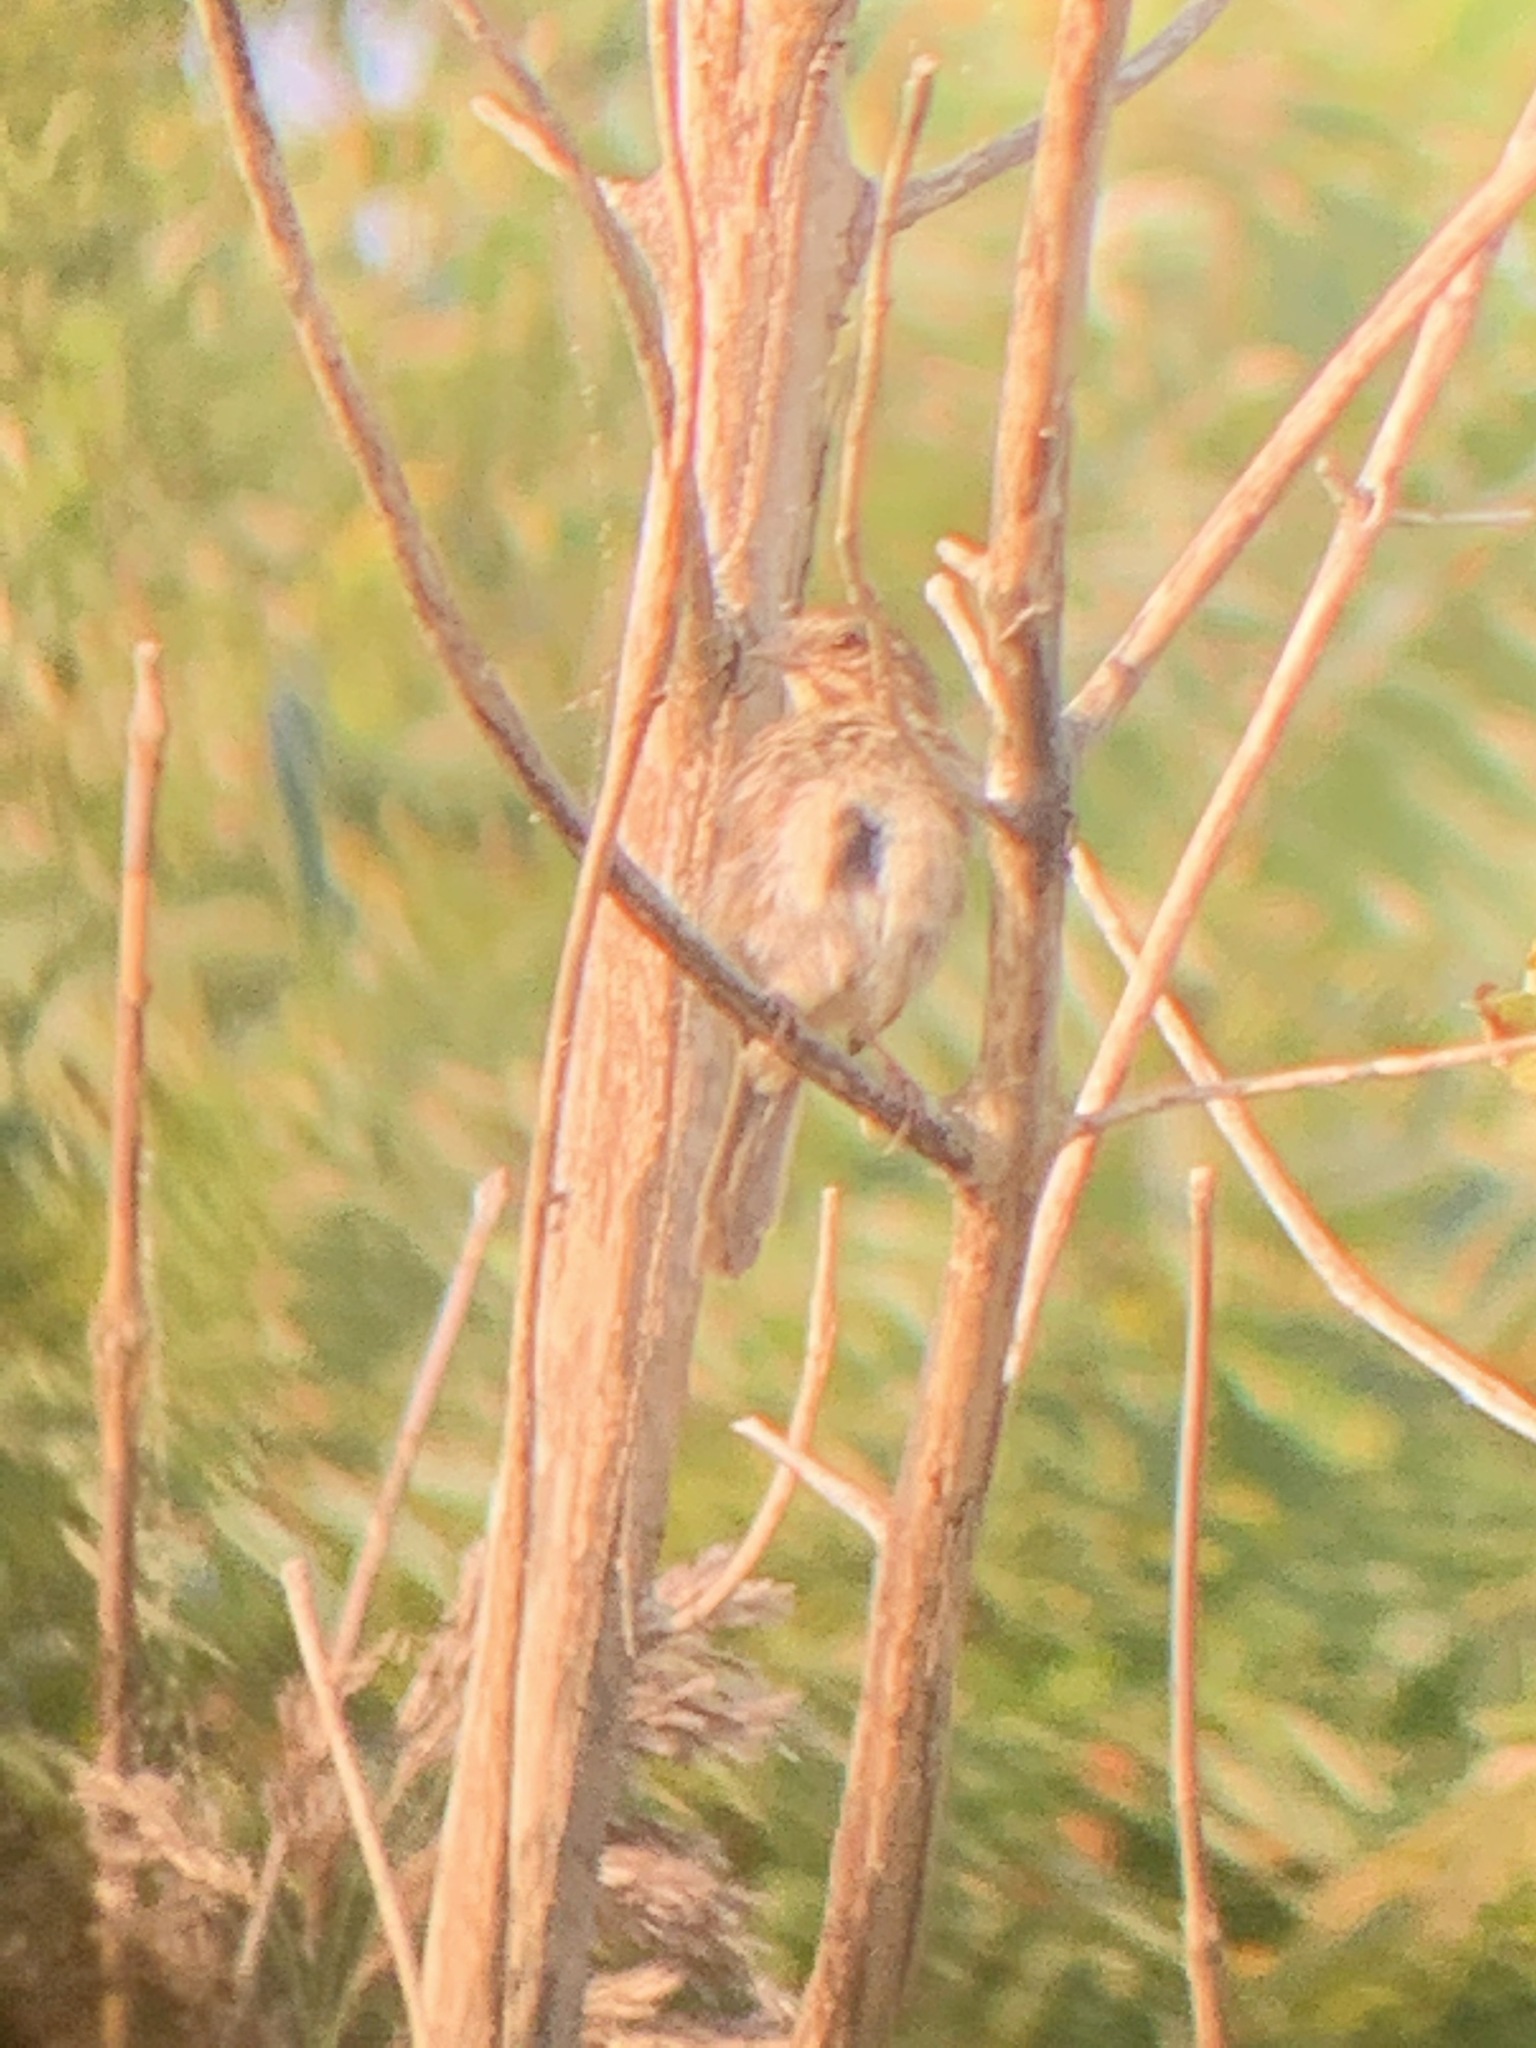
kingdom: Animalia
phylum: Chordata
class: Aves
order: Passeriformes
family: Passerellidae
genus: Melospiza
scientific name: Melospiza melodia
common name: Song sparrow
